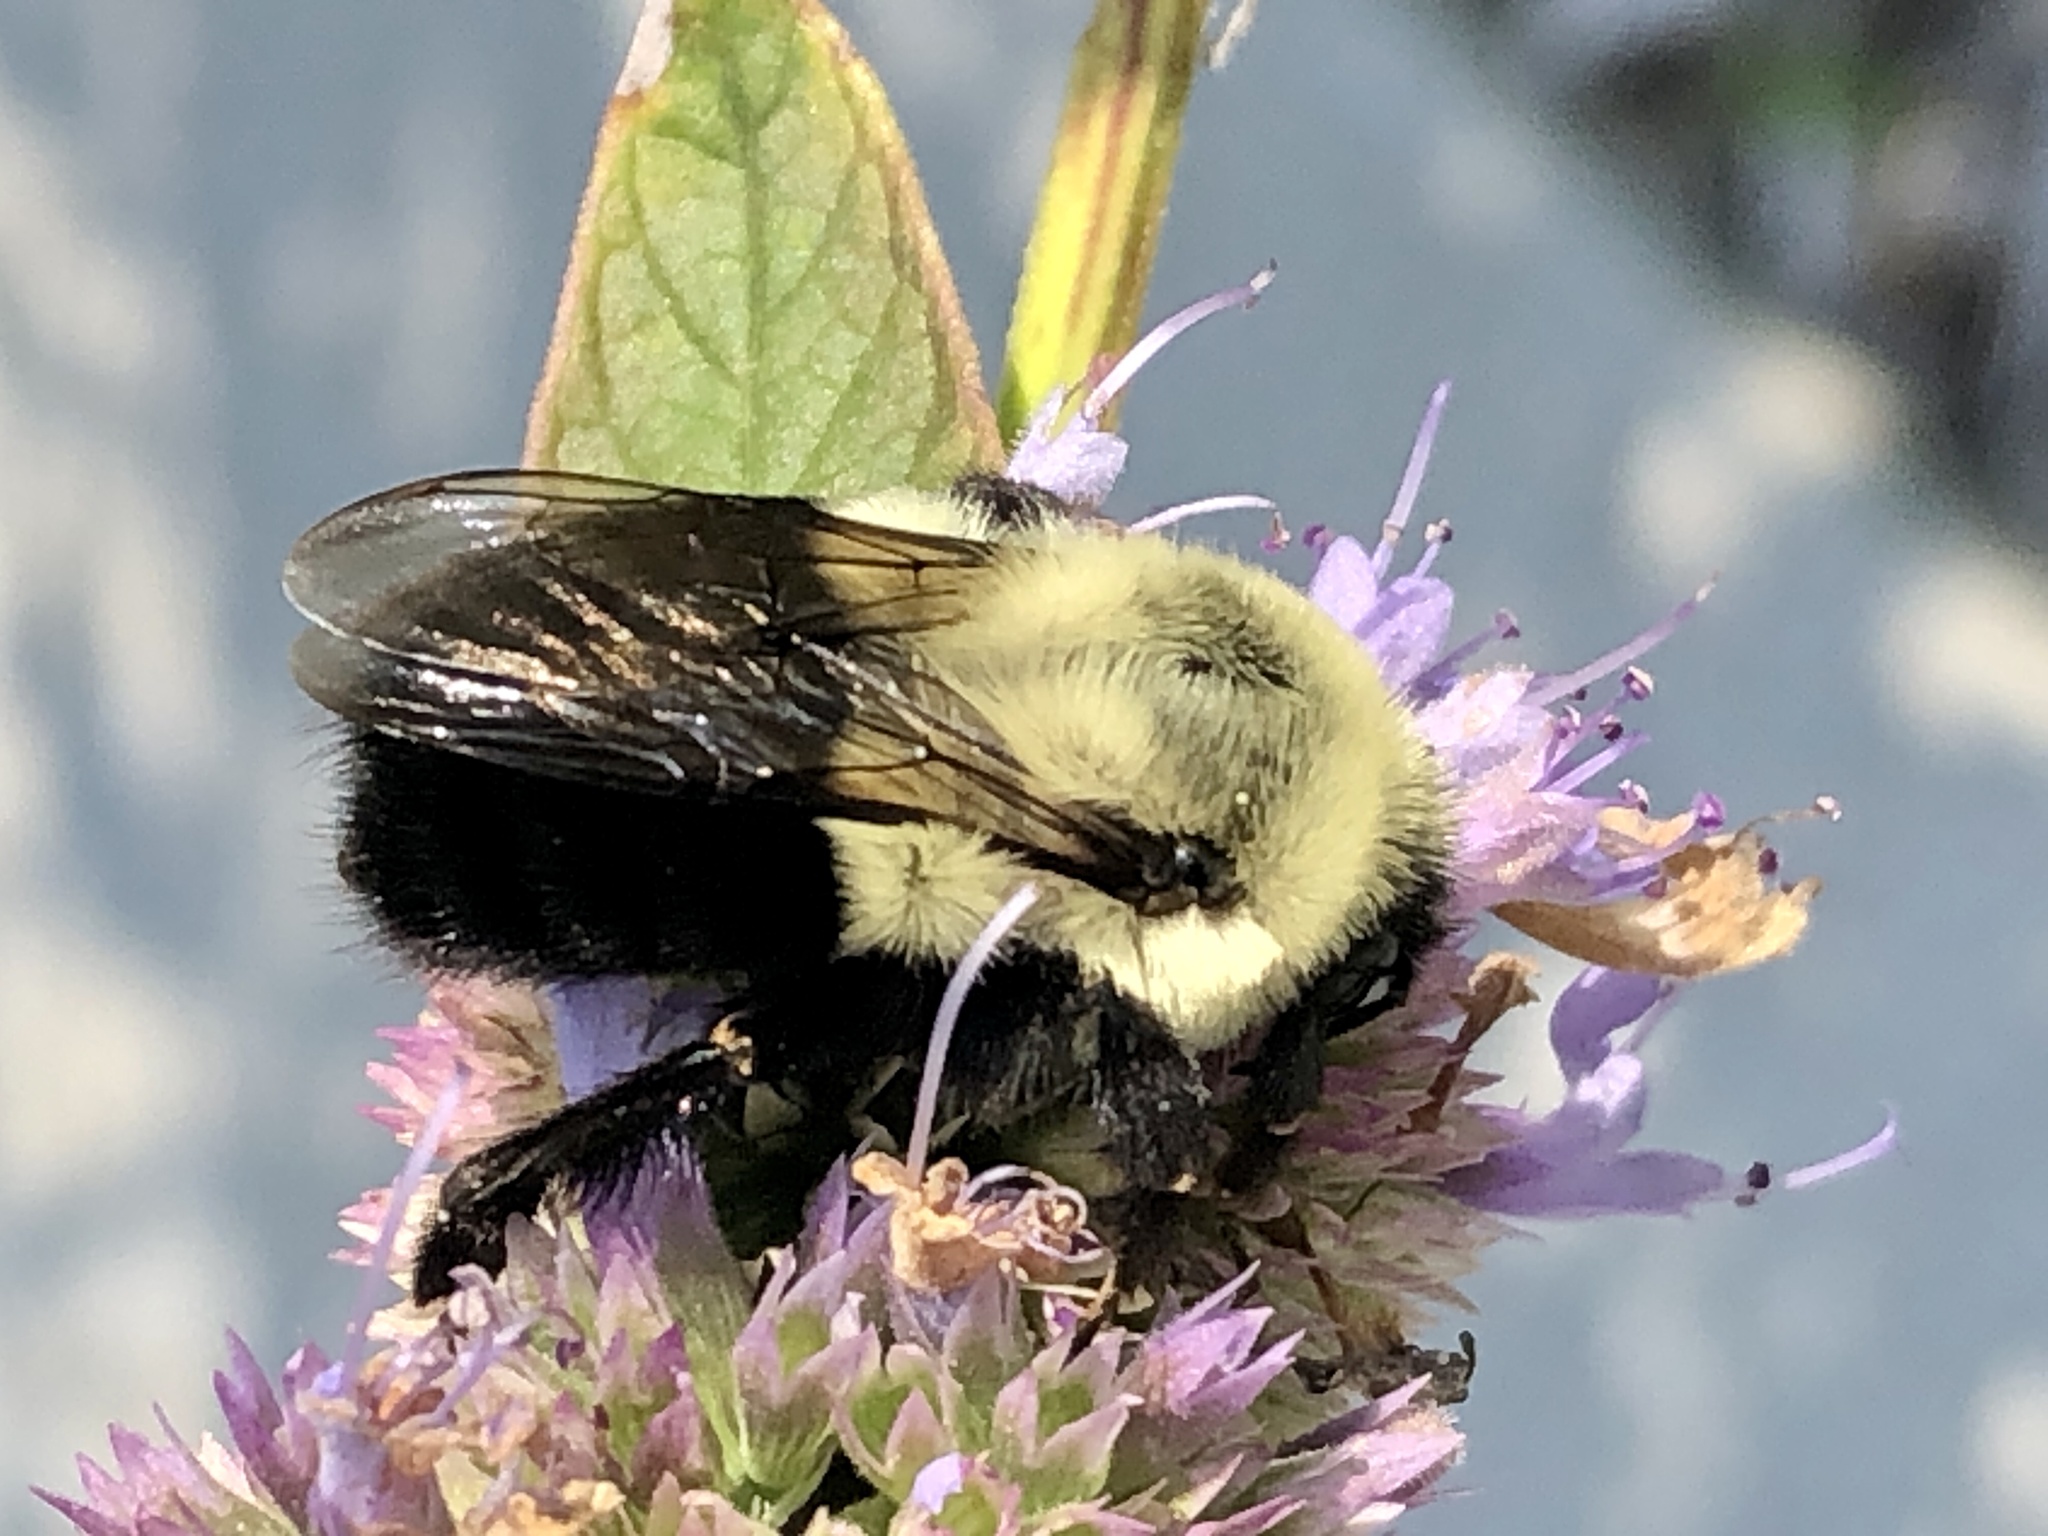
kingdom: Animalia
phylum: Arthropoda
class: Insecta
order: Hymenoptera
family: Apidae
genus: Bombus
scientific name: Bombus impatiens
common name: Common eastern bumble bee
